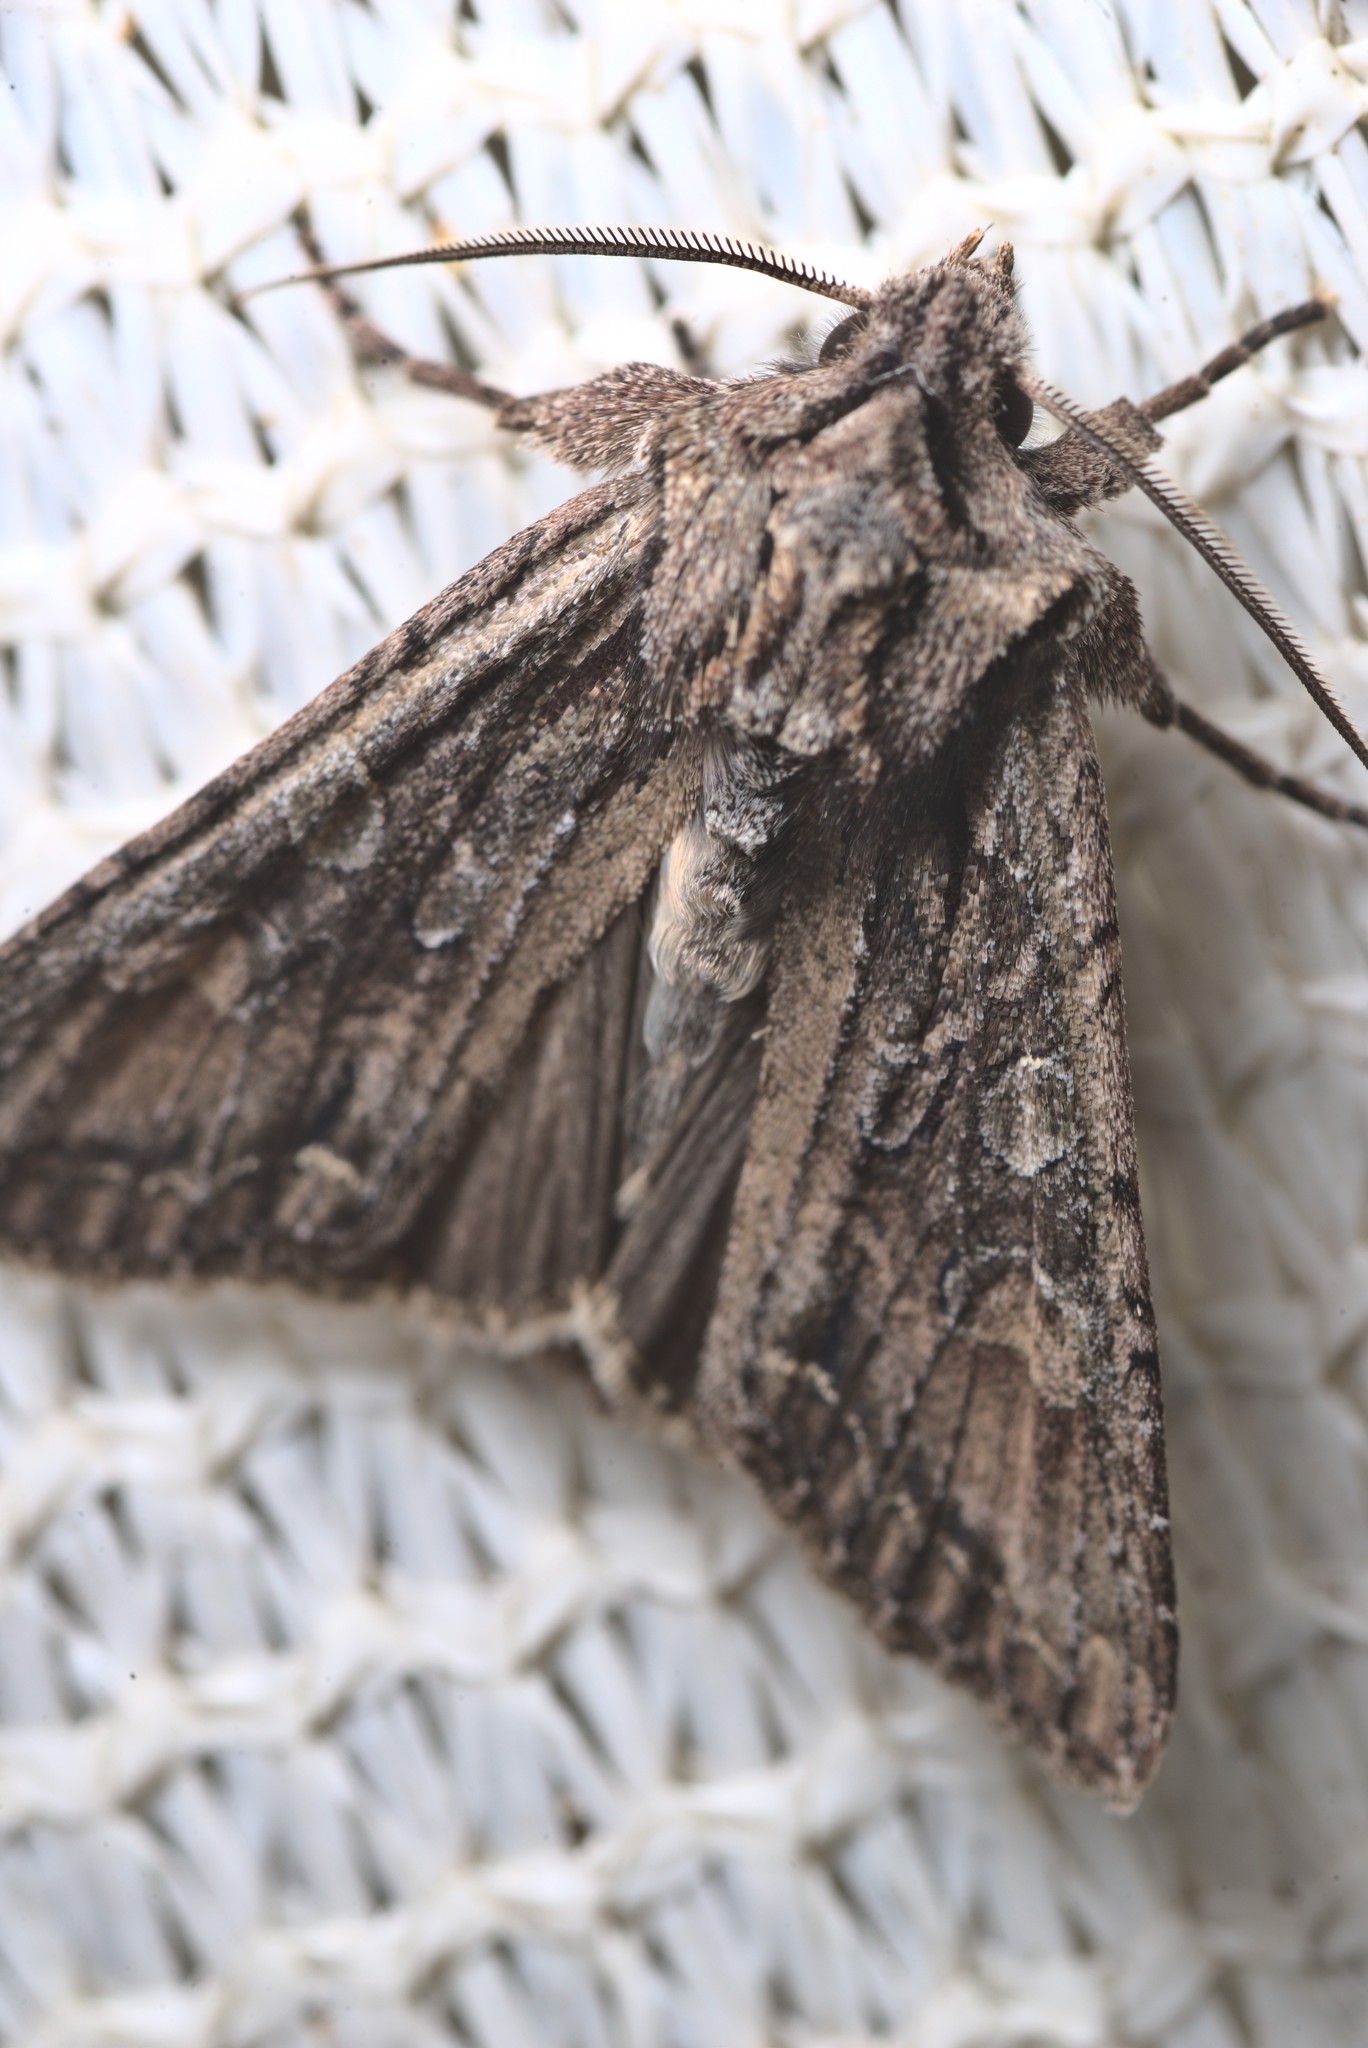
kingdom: Animalia
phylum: Arthropoda
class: Insecta
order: Lepidoptera
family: Noctuidae
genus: Ichneutica
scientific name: Ichneutica mutans
